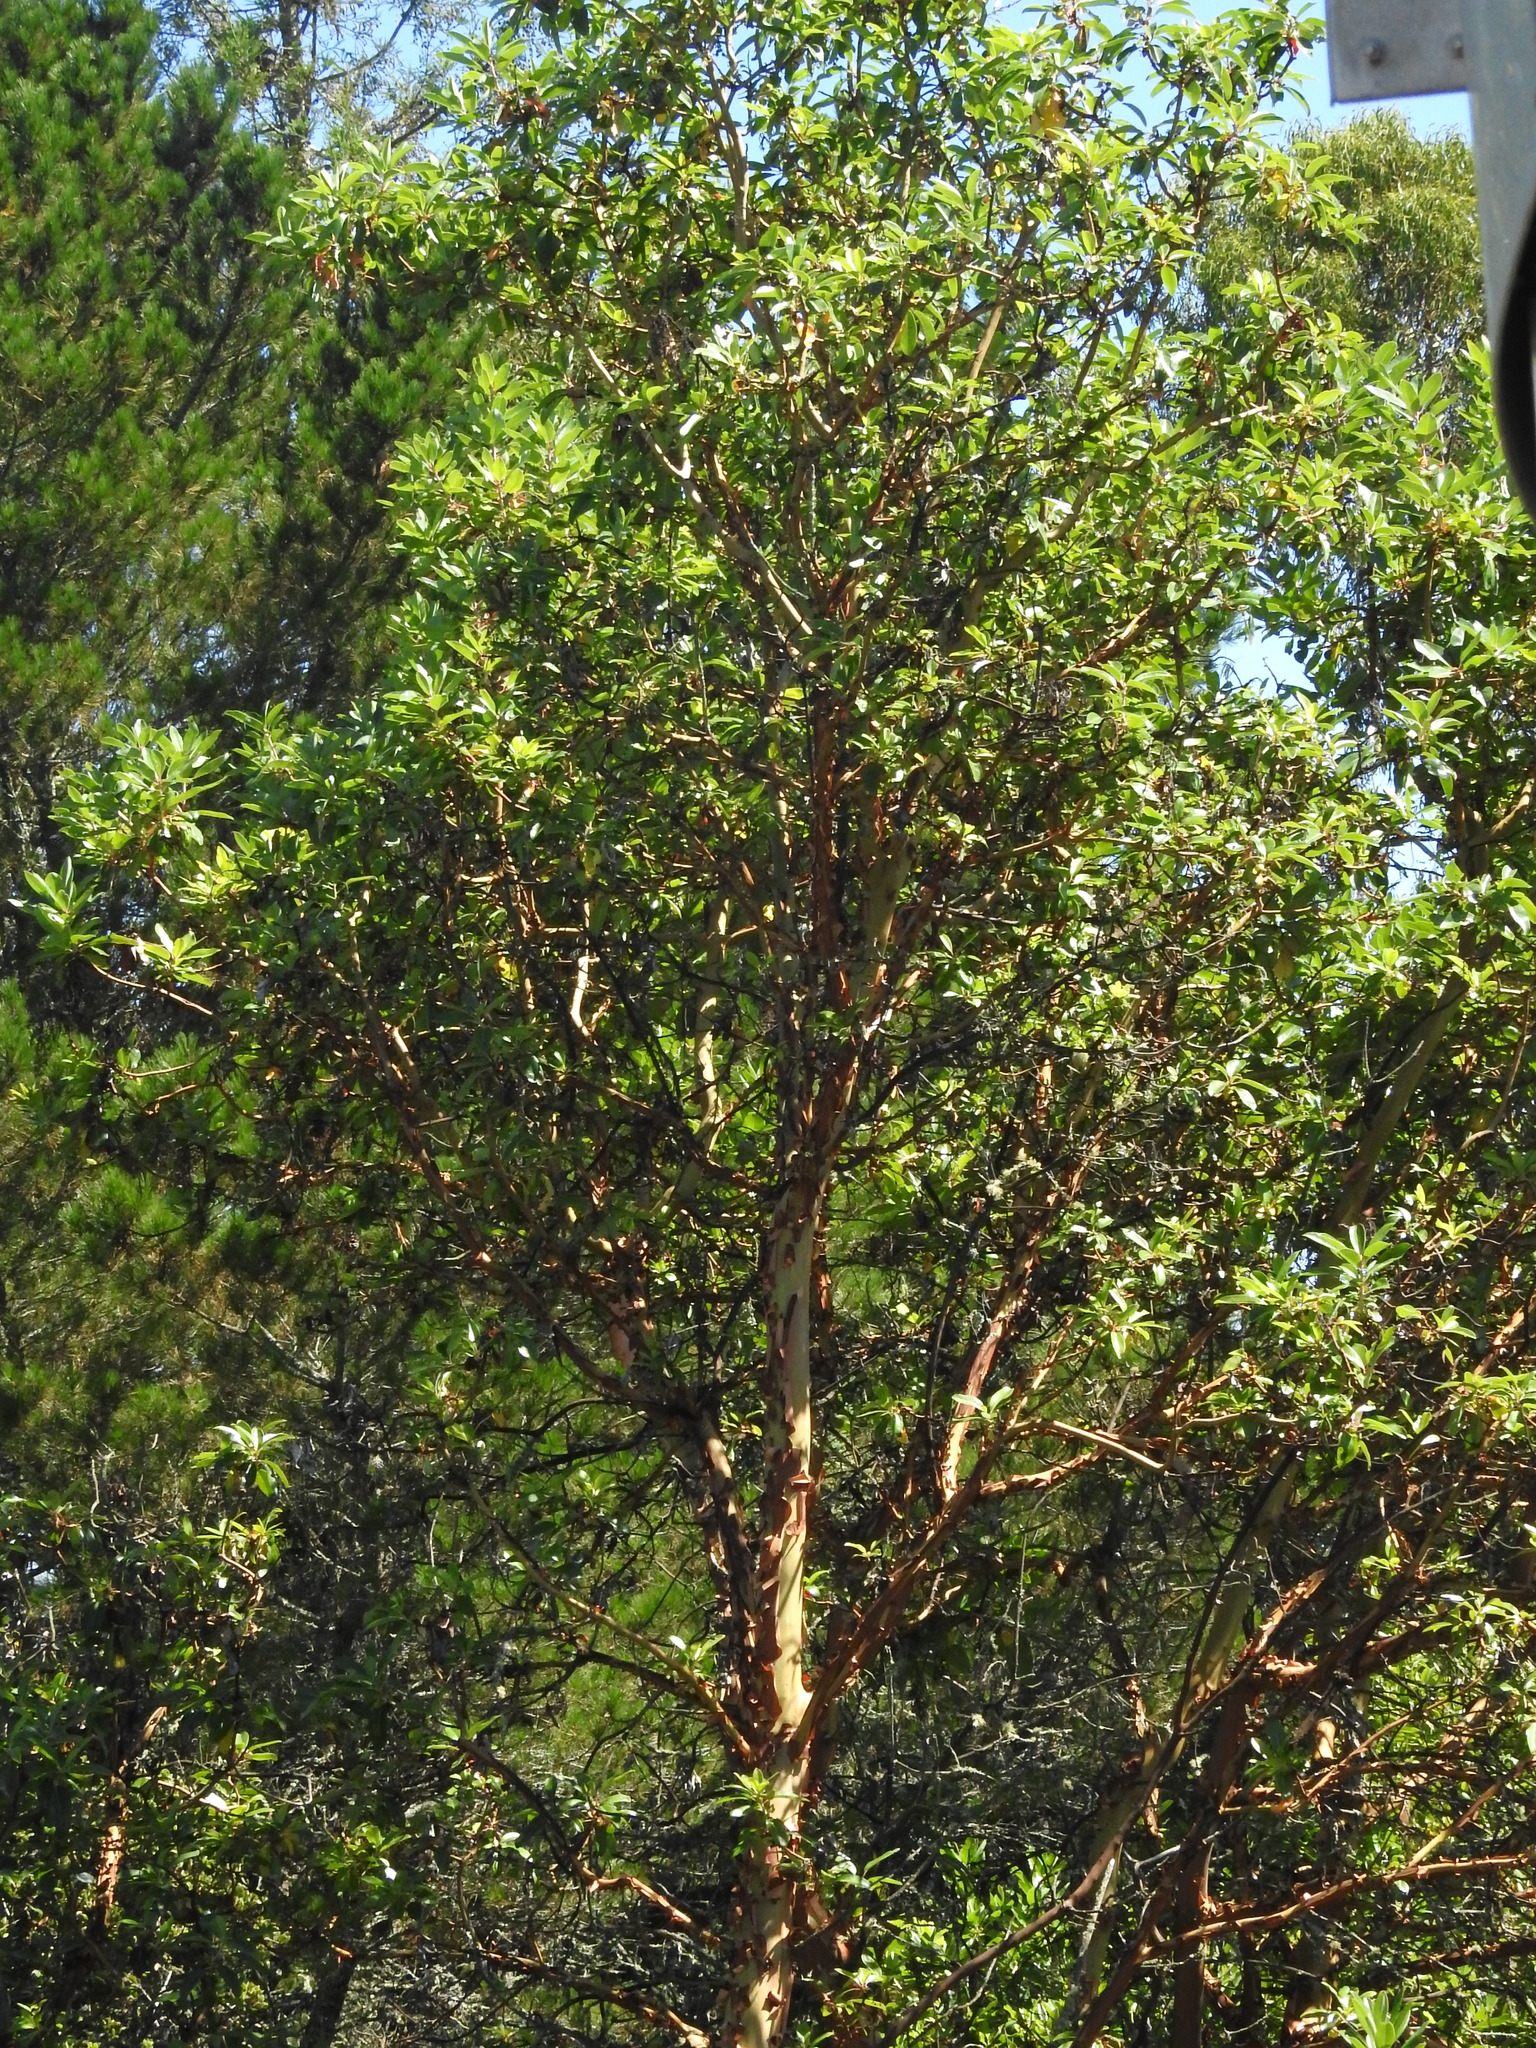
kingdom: Plantae
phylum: Tracheophyta
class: Magnoliopsida
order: Ericales
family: Ericaceae
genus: Arbutus
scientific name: Arbutus menziesii
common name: Pacific madrone
